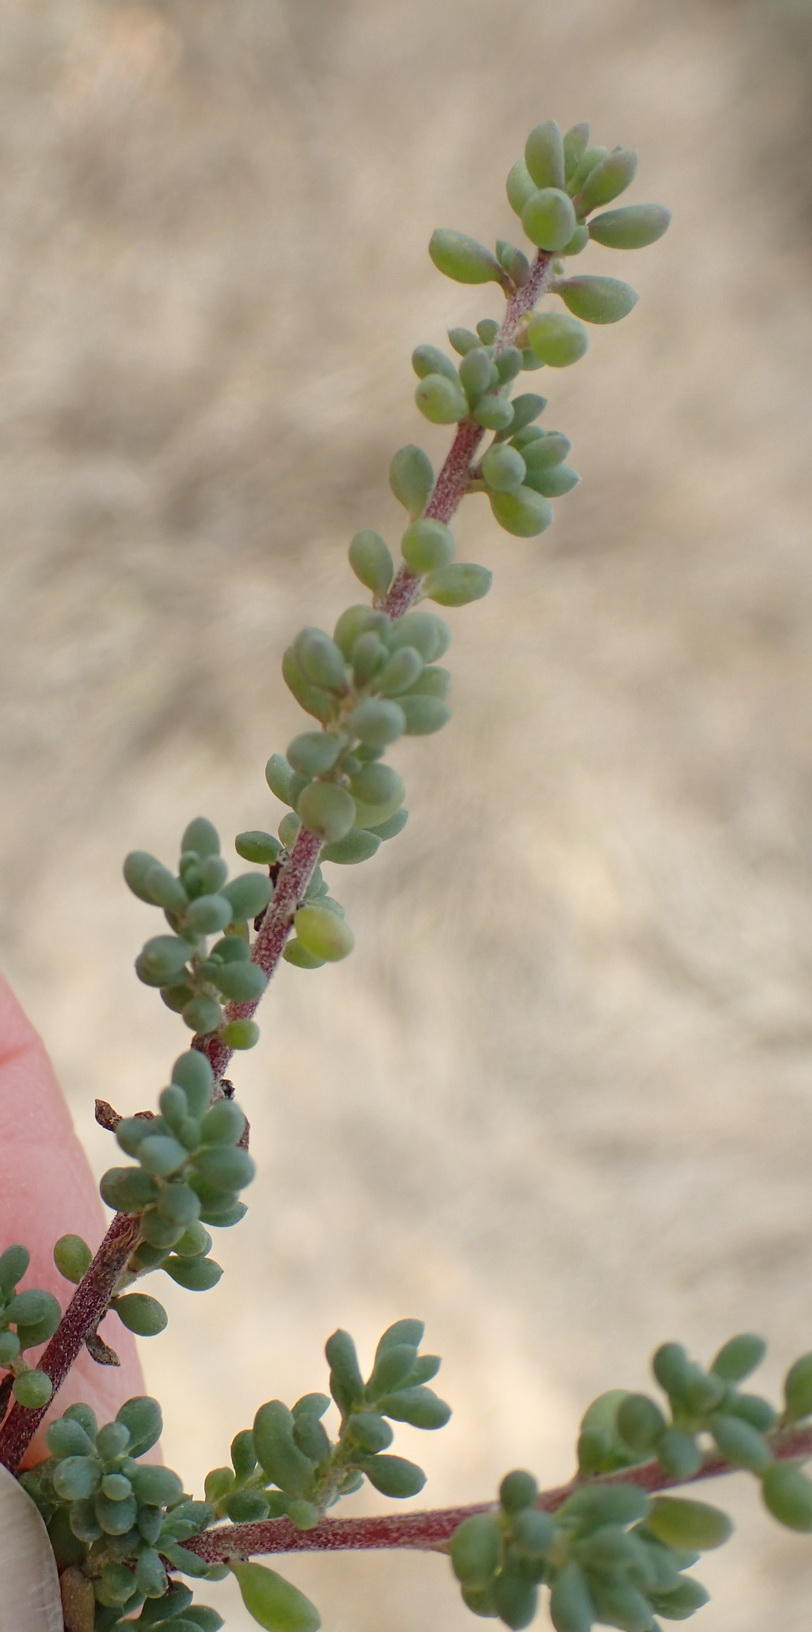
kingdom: Plantae
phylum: Tracheophyta
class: Magnoliopsida
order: Caryophyllales
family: Amaranthaceae
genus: Maireana
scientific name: Maireana brevifolia
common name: Eastern cottonbush
